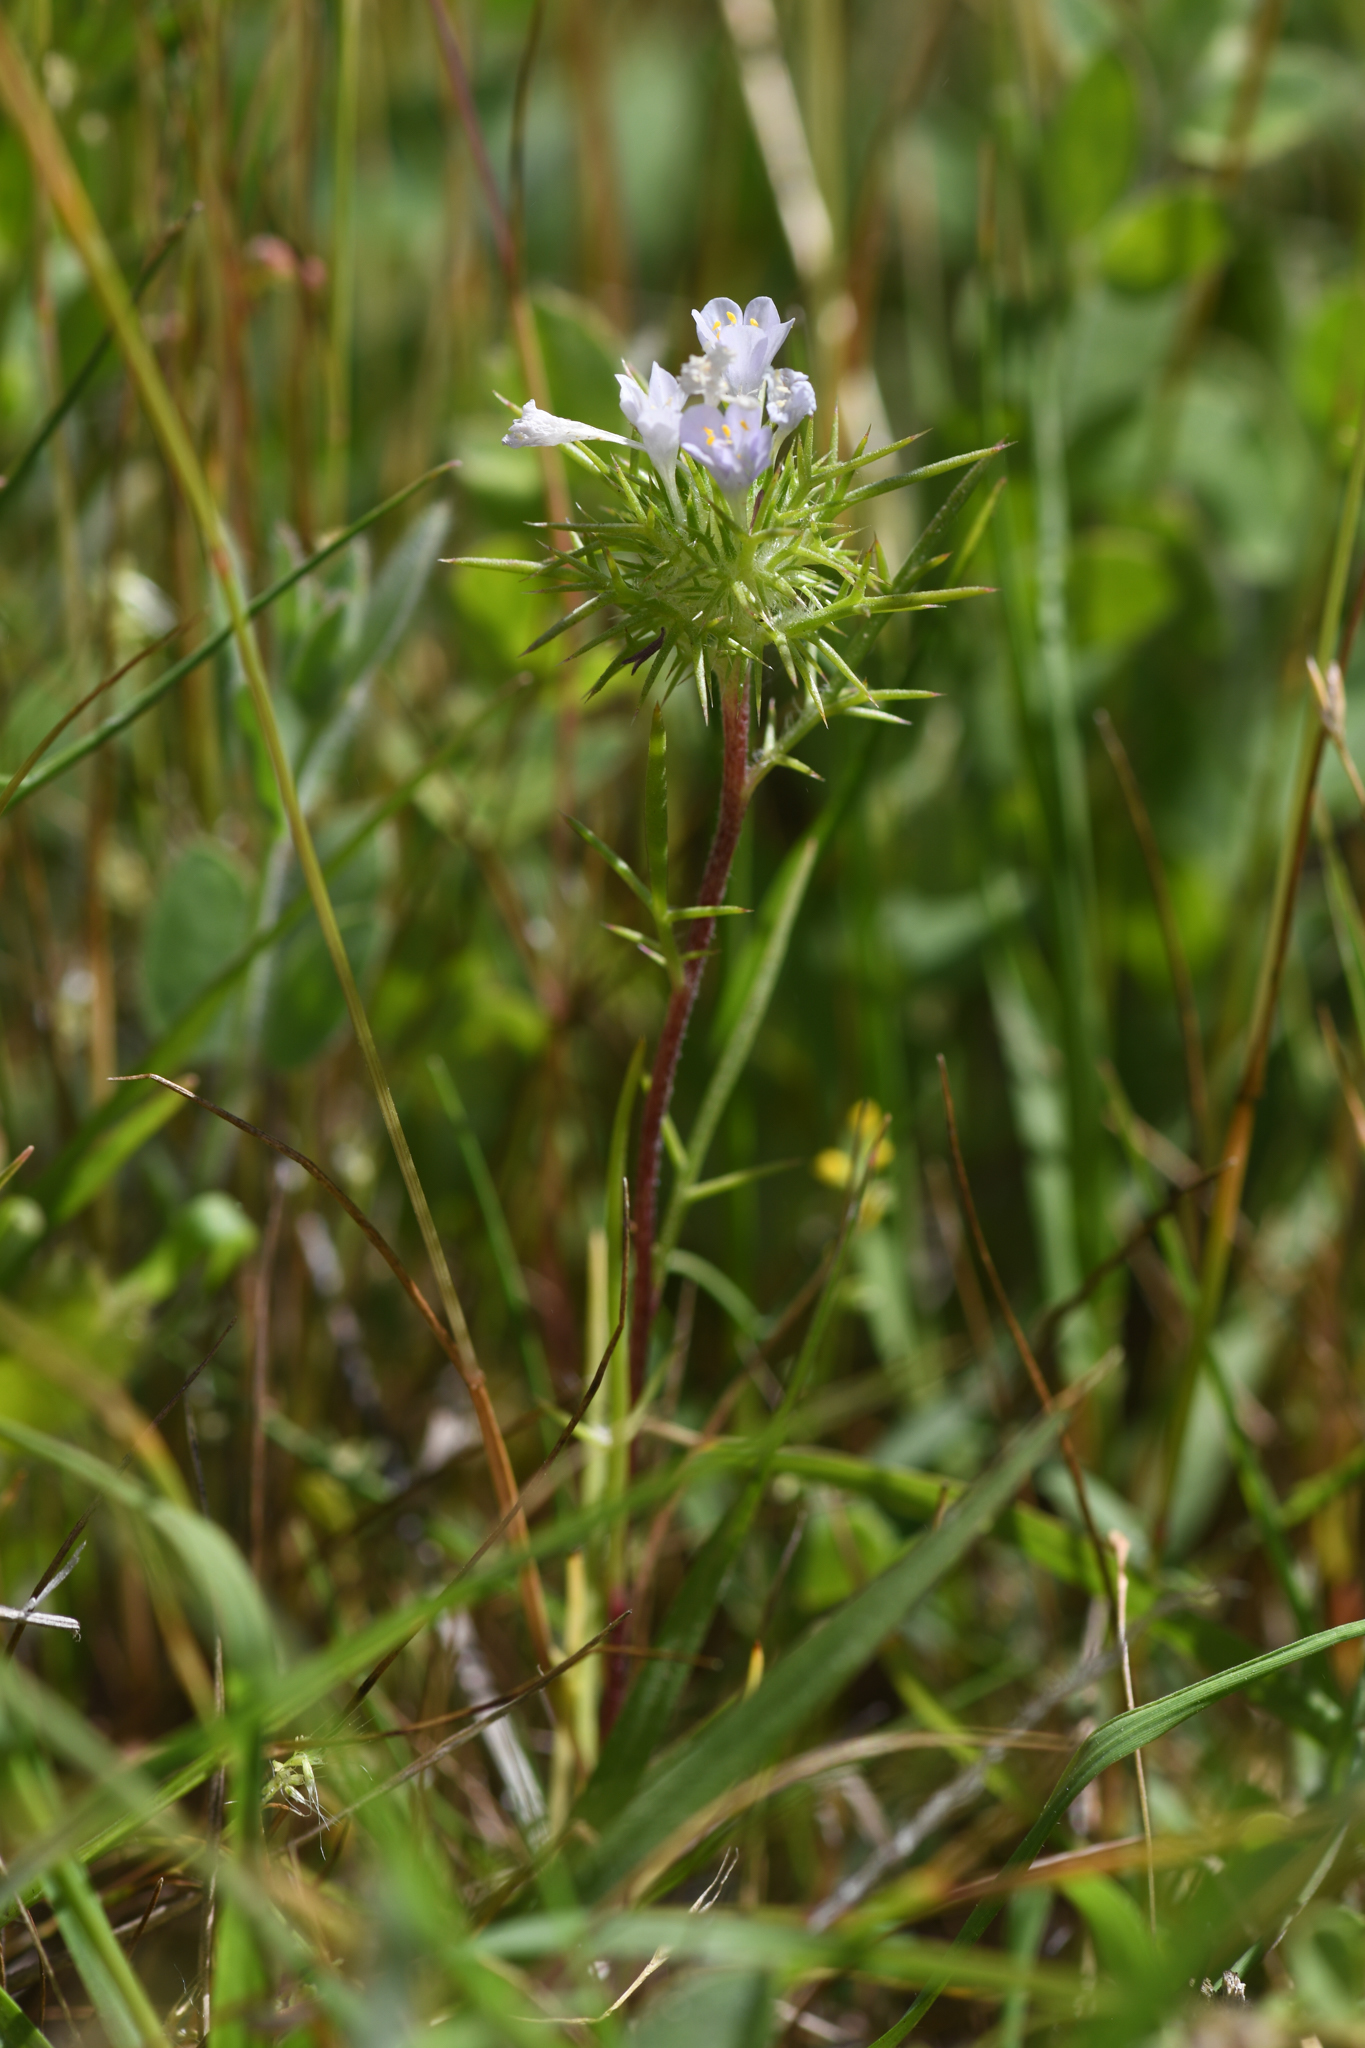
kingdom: Plantae
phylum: Tracheophyta
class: Magnoliopsida
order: Ericales
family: Polemoniaceae
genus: Navarretia
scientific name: Navarretia paradoxiclara
